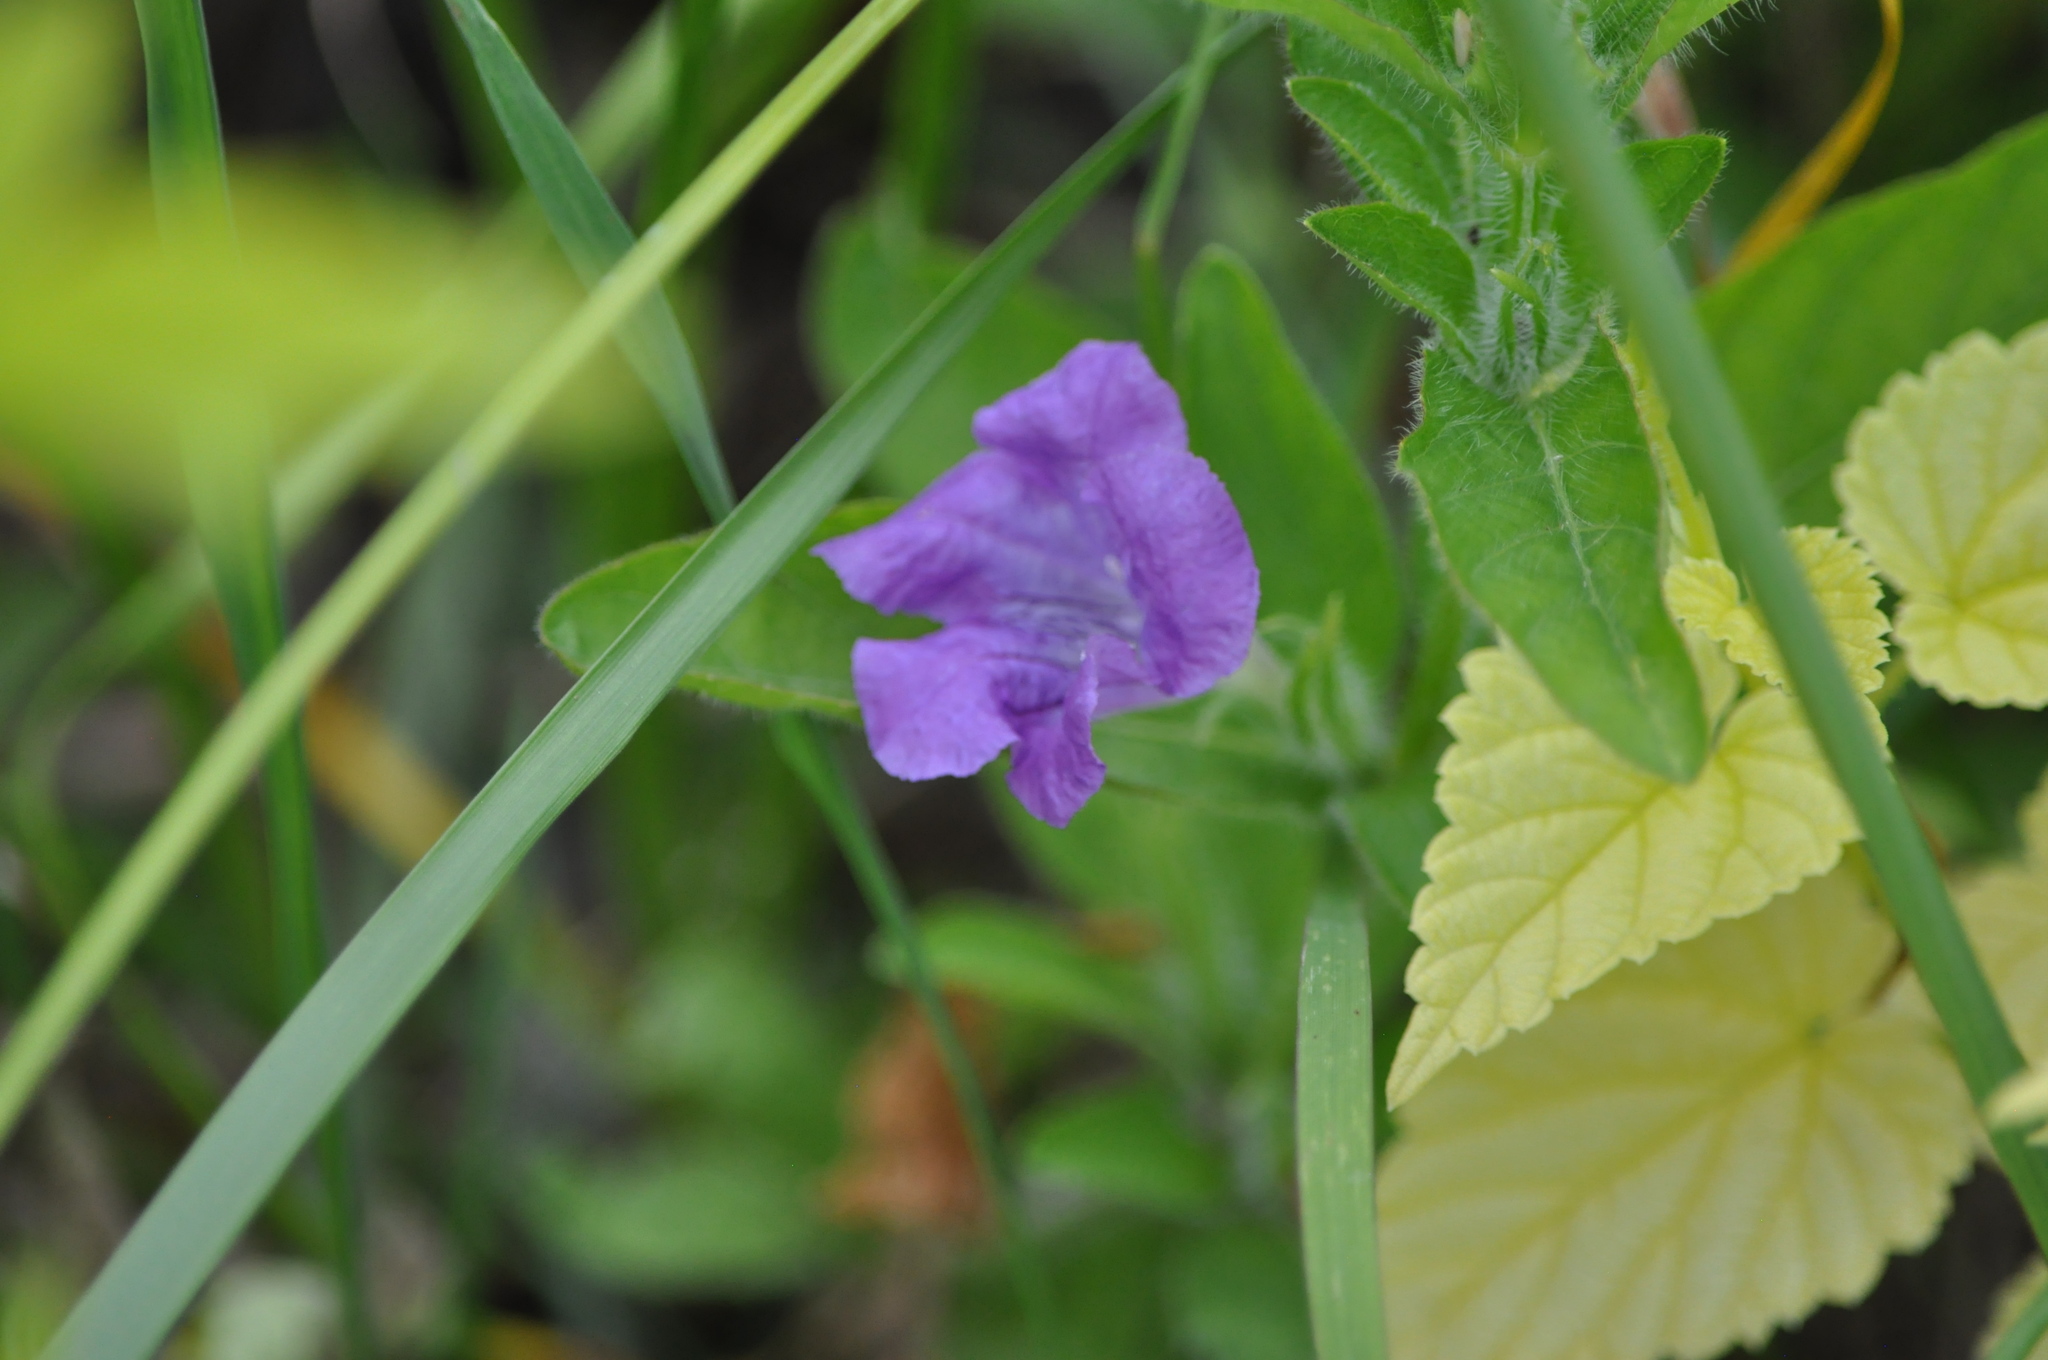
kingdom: Plantae
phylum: Tracheophyta
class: Magnoliopsida
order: Lamiales
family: Acanthaceae
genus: Ruellia
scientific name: Ruellia humilis
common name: Fringe-leaf ruellia
